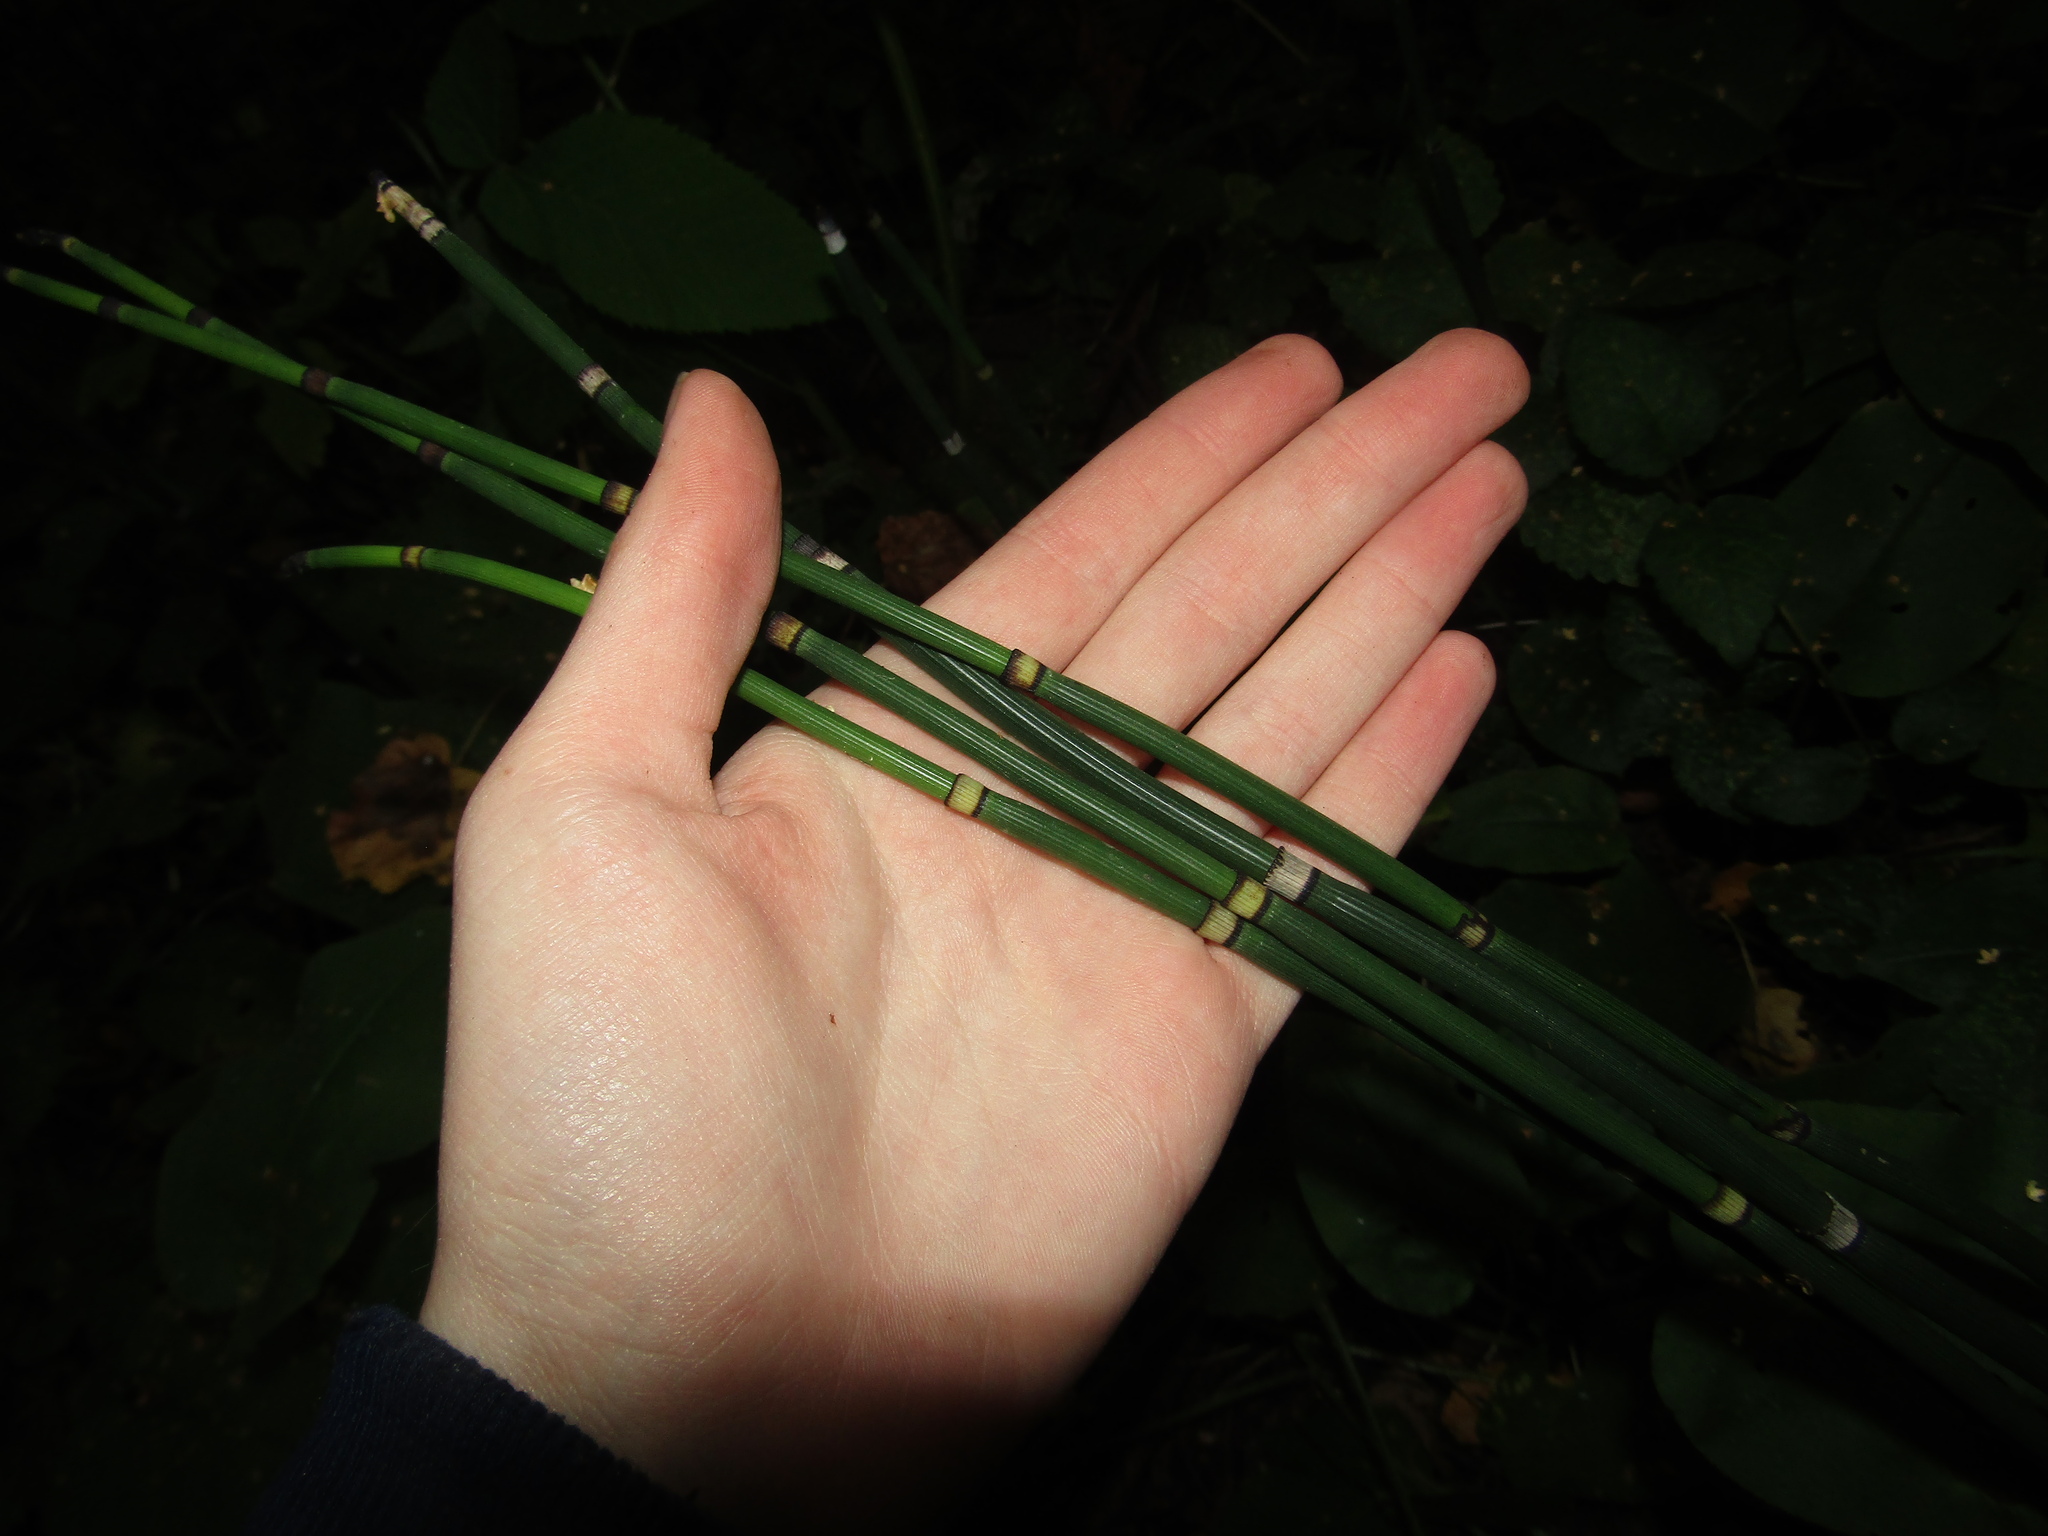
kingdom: Plantae
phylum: Tracheophyta
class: Polypodiopsida
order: Equisetales
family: Equisetaceae
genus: Equisetum
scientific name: Equisetum hyemale
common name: Rough horsetail
